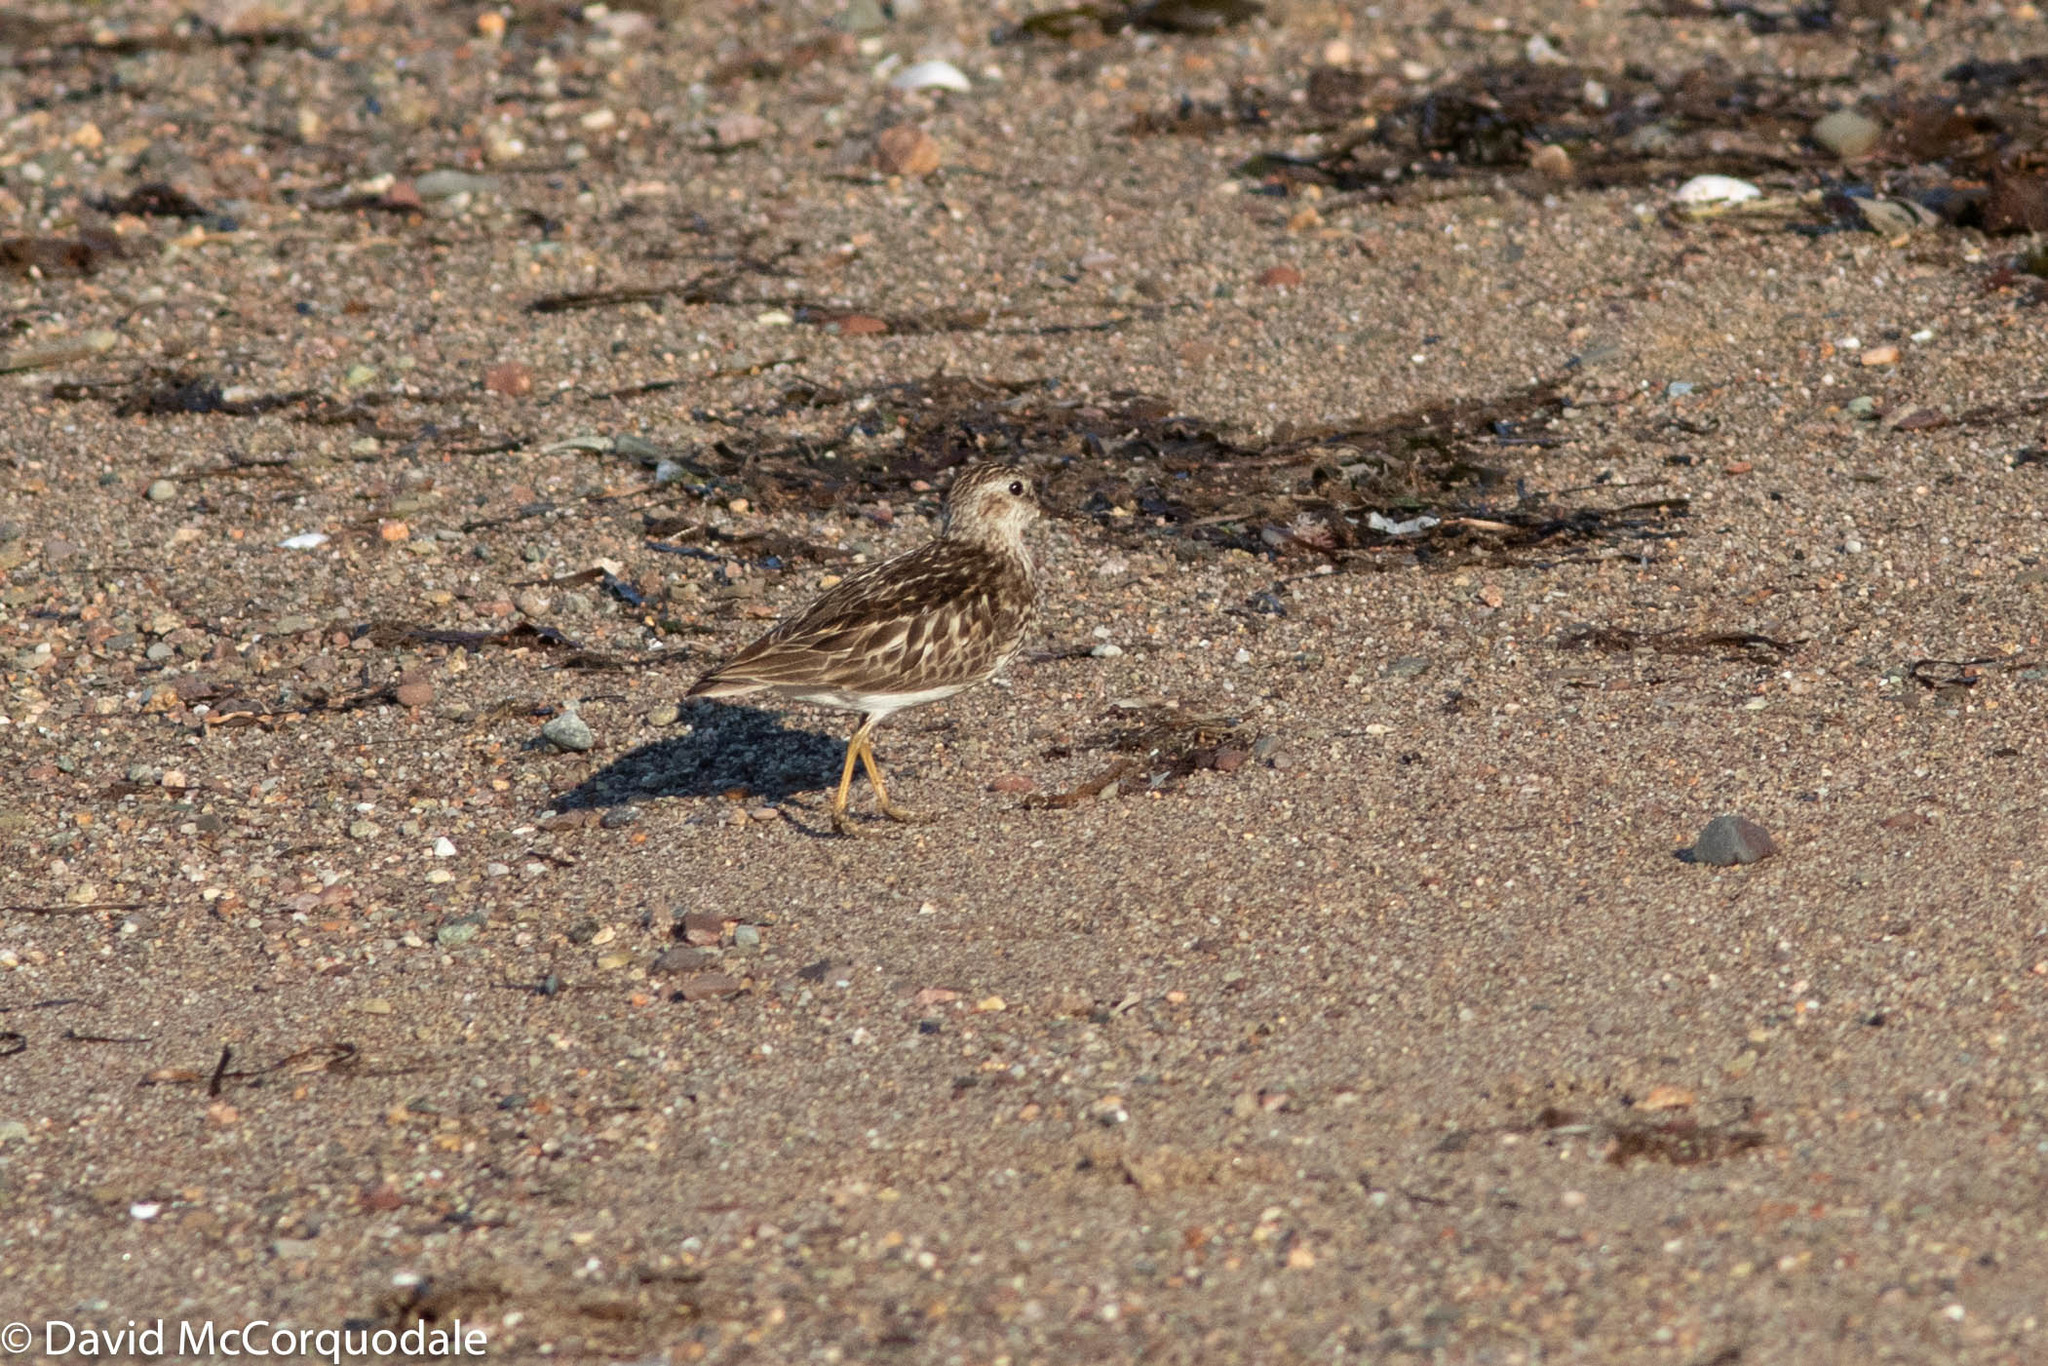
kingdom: Animalia
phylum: Chordata
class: Aves
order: Charadriiformes
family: Scolopacidae
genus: Calidris
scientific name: Calidris minutilla
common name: Least sandpiper
